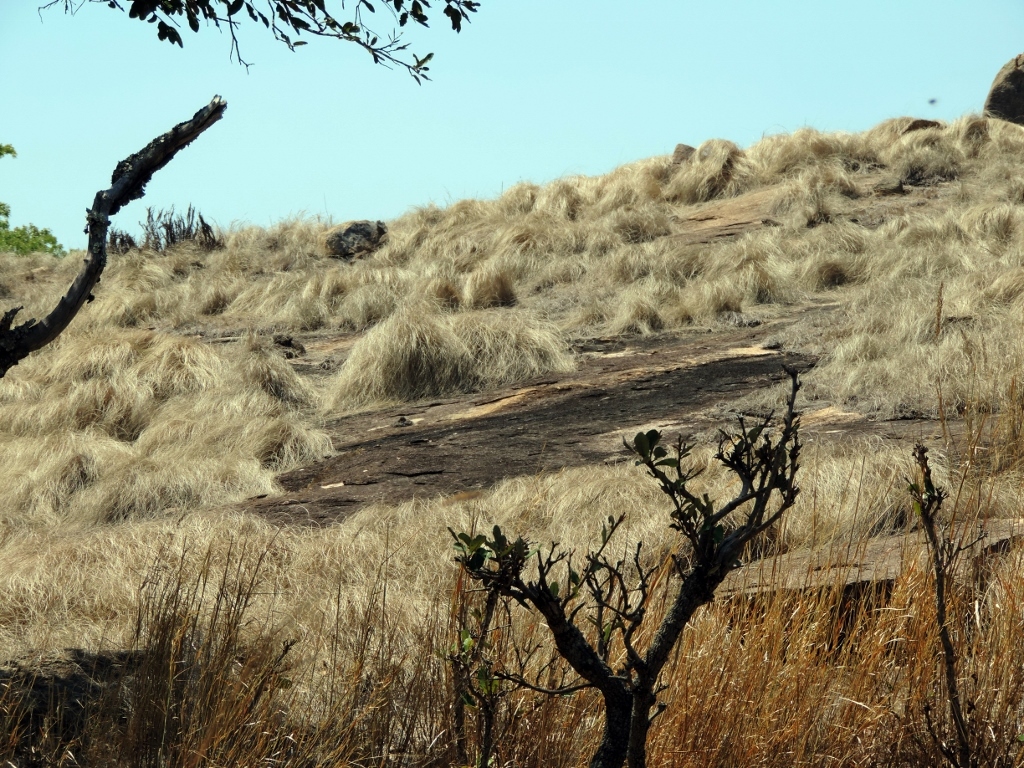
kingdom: Plantae
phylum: Tracheophyta
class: Liliopsida
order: Poales
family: Cyperaceae
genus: Coleochloa
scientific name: Coleochloa setifera
